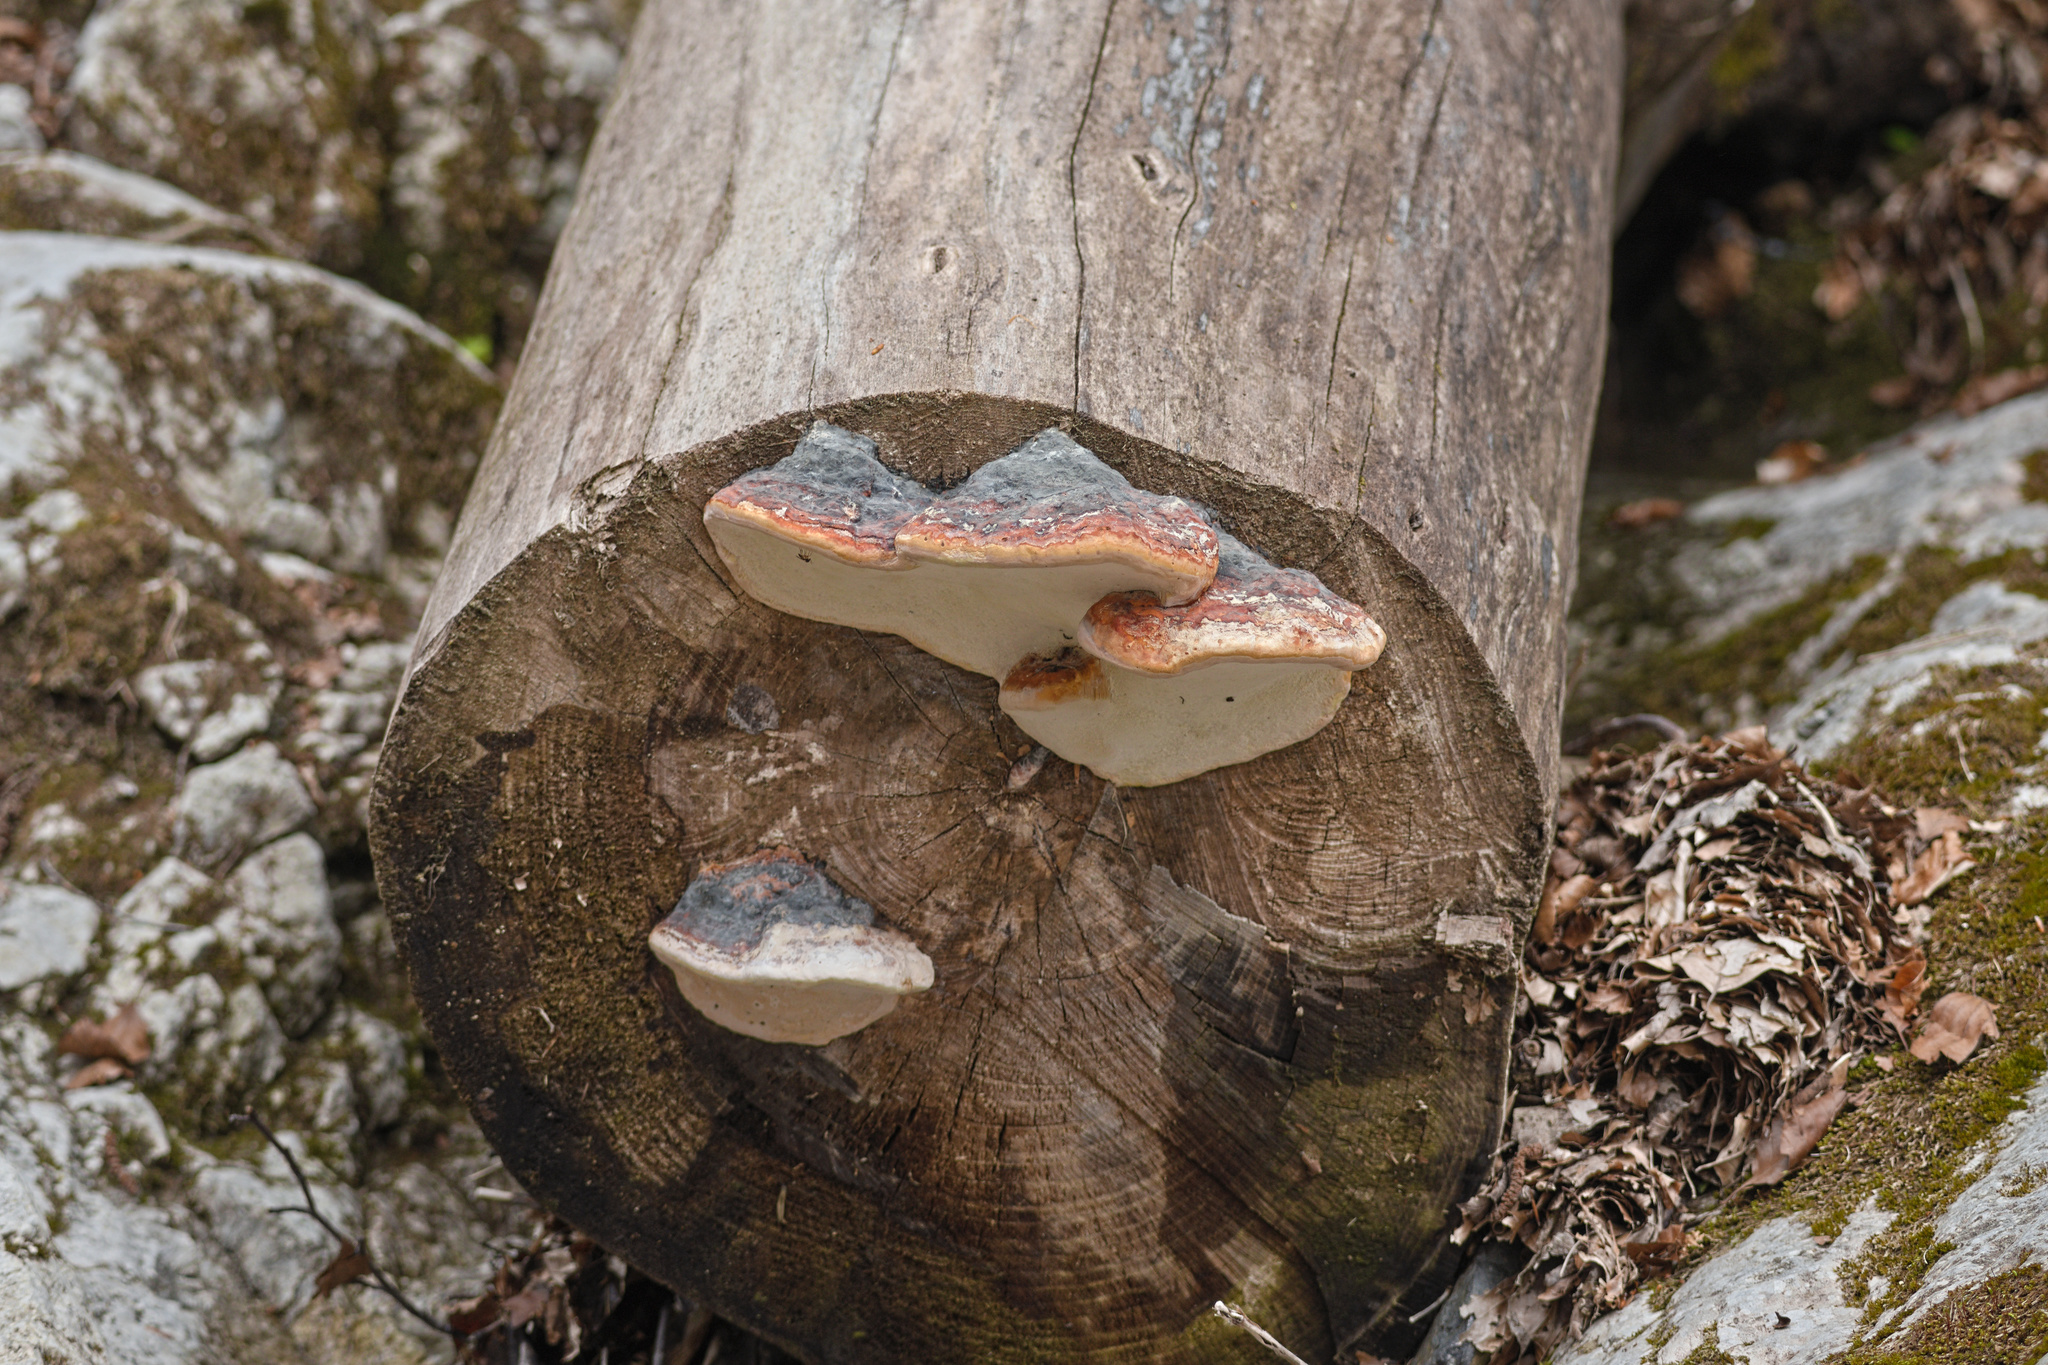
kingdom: Fungi
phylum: Basidiomycota
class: Agaricomycetes
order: Polyporales
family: Fomitopsidaceae
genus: Fomitopsis
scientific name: Fomitopsis pinicola
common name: Red-belted bracket
